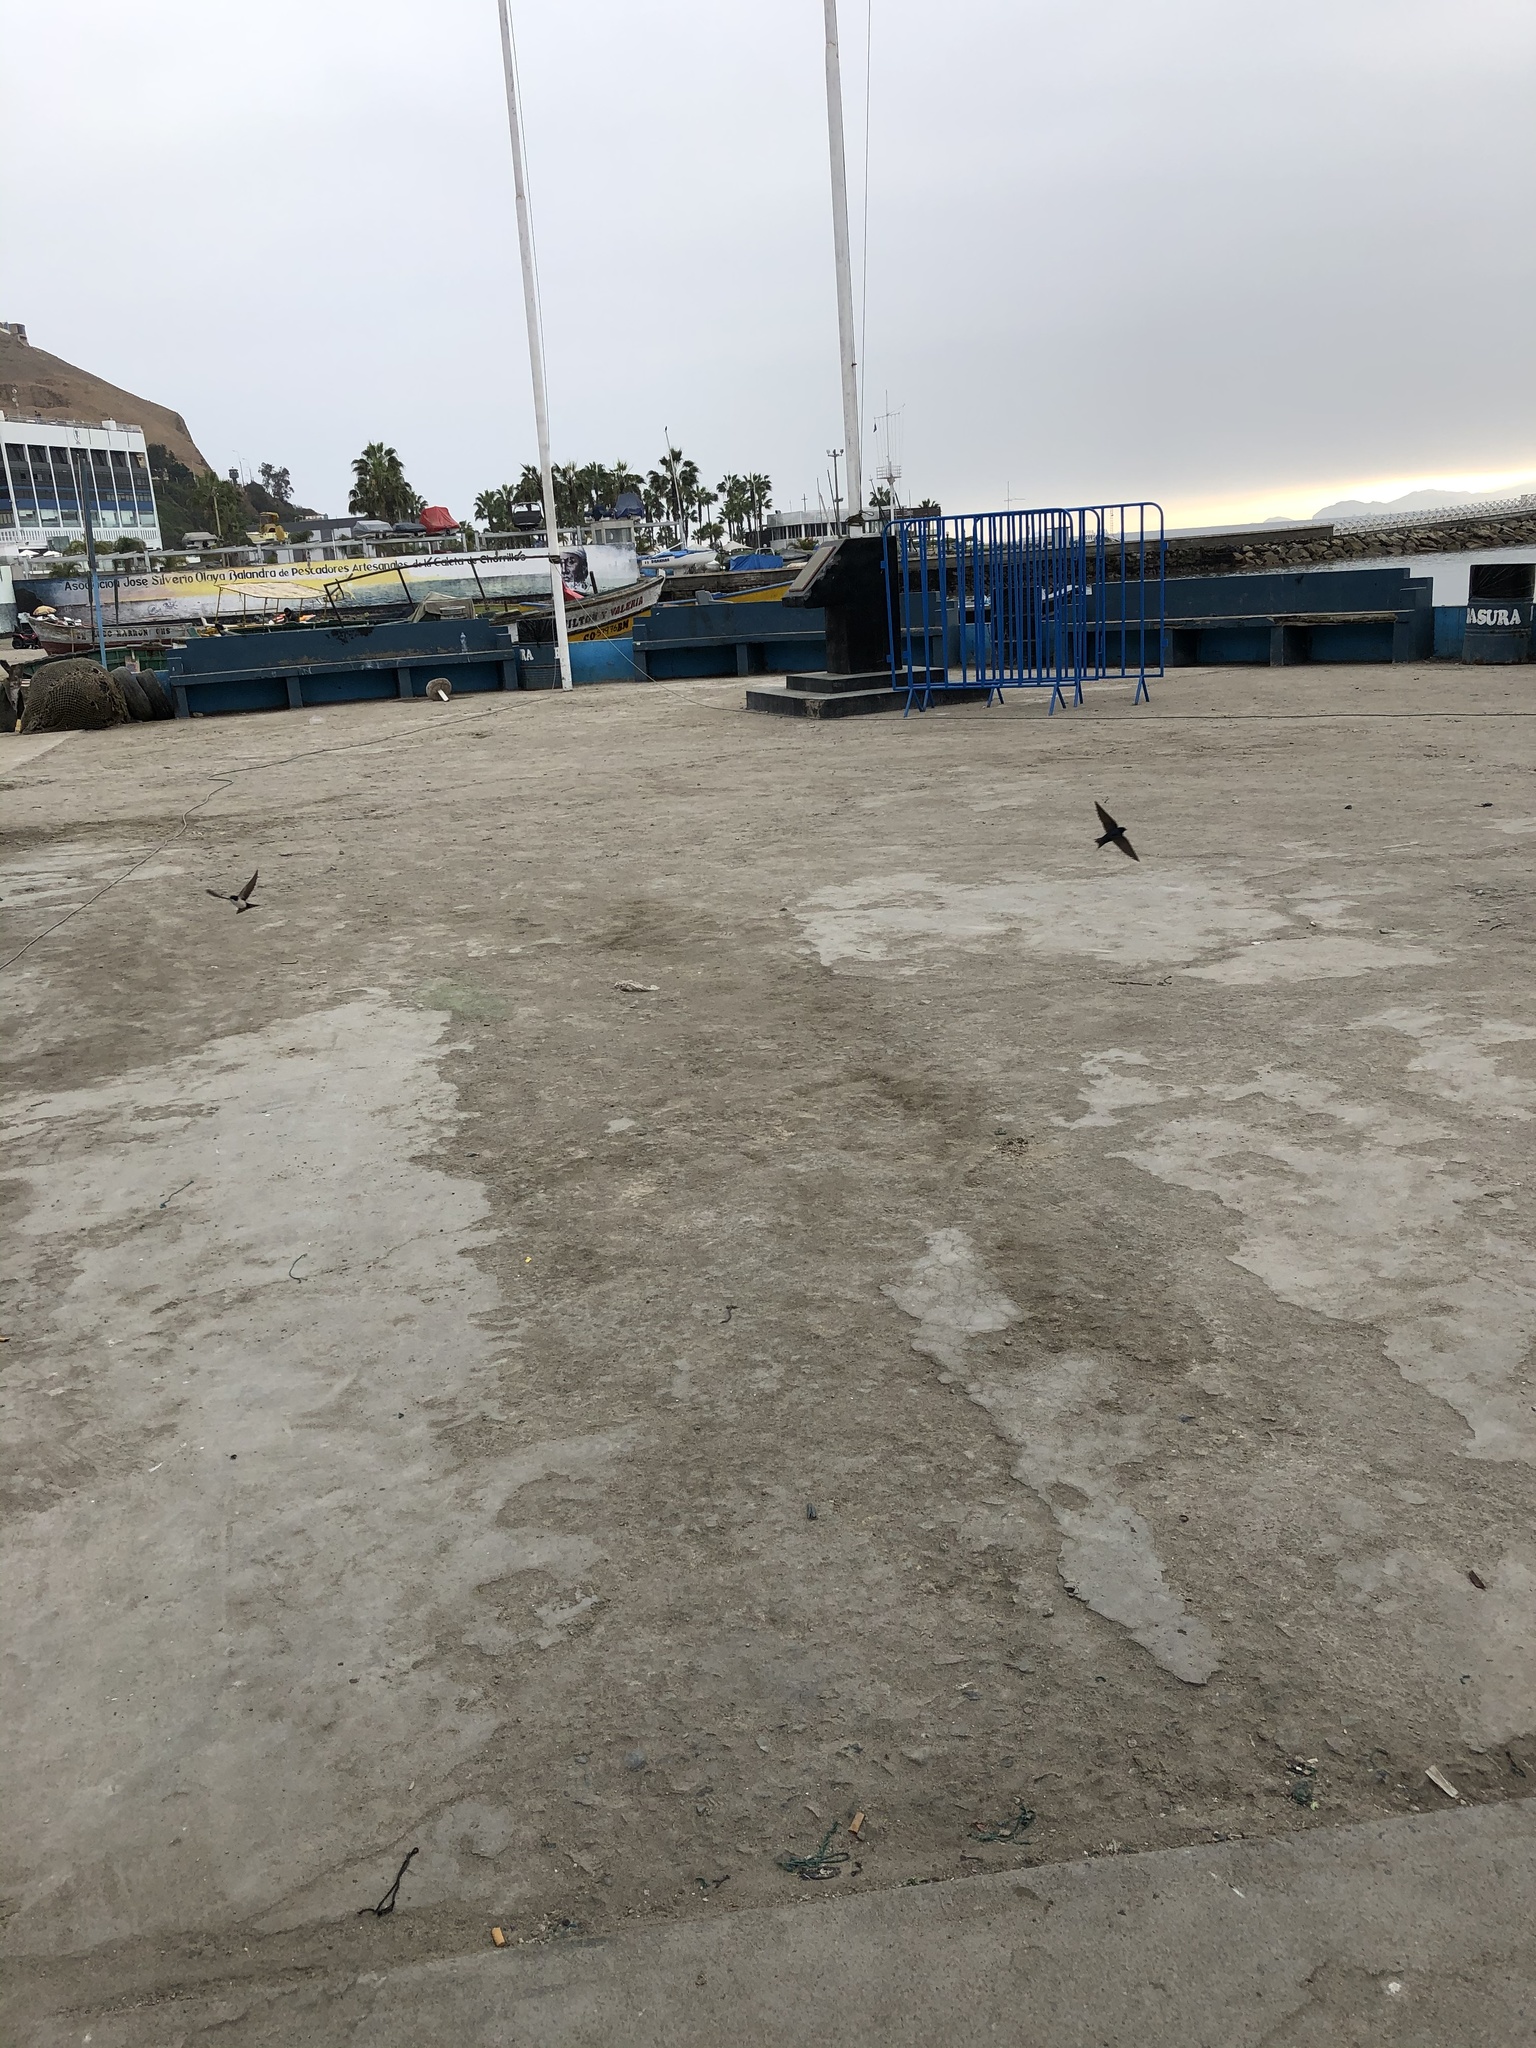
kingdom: Animalia
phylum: Chordata
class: Aves
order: Passeriformes
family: Hirundinidae
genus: Notiochelidon
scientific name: Notiochelidon cyanoleuca
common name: Blue-and-white swallow
